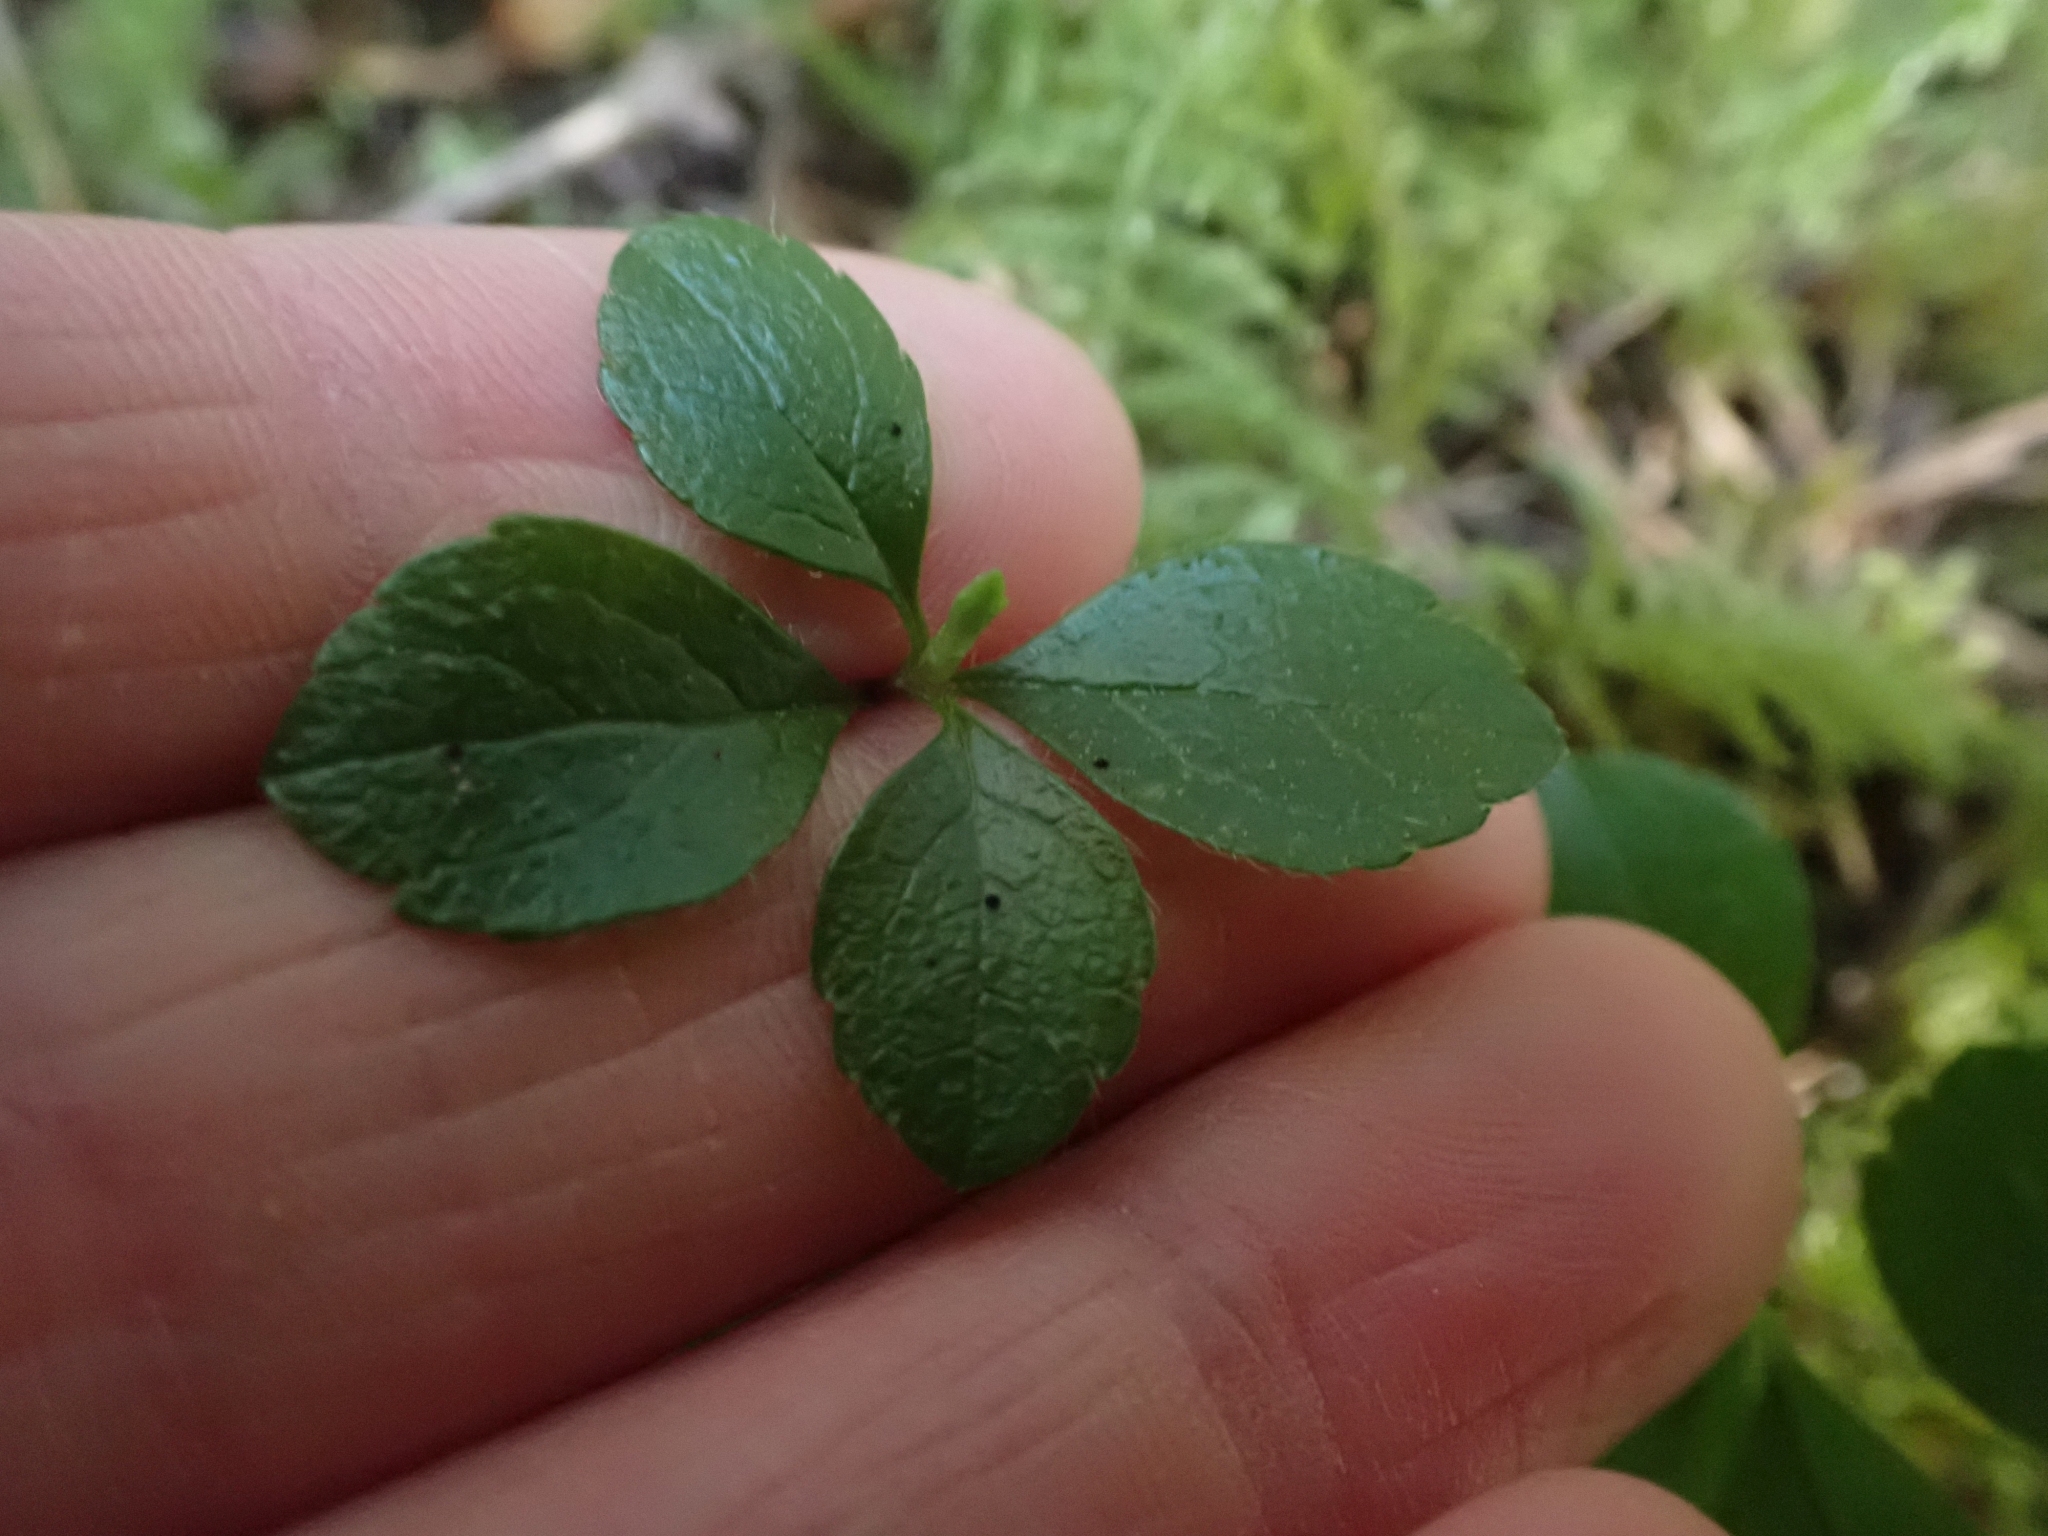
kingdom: Plantae
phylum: Tracheophyta
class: Magnoliopsida
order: Dipsacales
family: Caprifoliaceae
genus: Linnaea
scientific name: Linnaea borealis
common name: Twinflower
